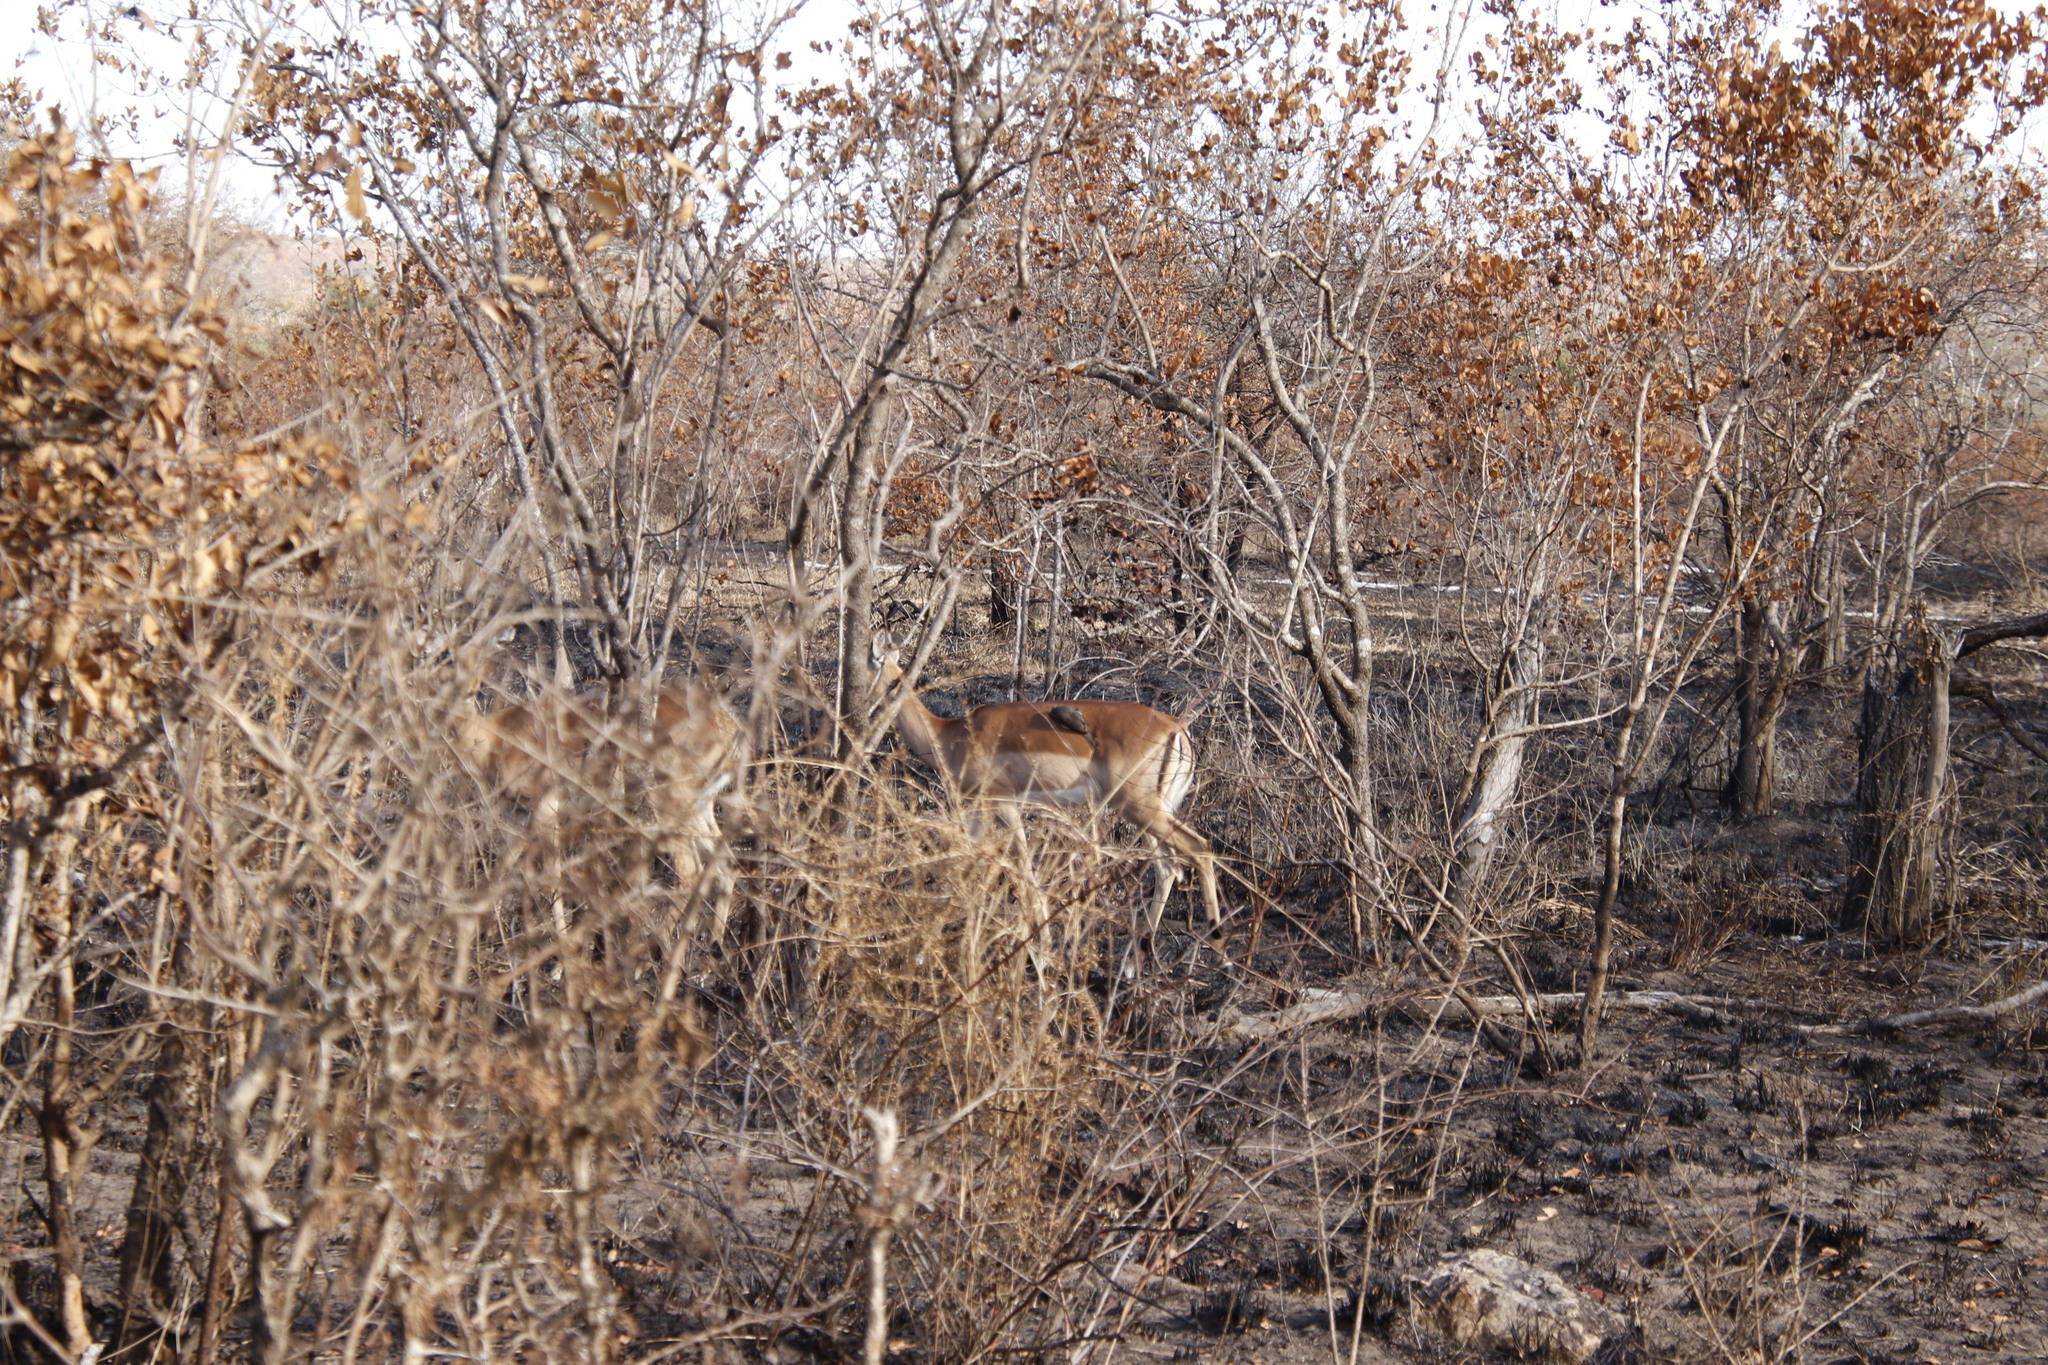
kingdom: Animalia
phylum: Chordata
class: Mammalia
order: Artiodactyla
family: Bovidae
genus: Aepyceros
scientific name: Aepyceros melampus
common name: Impala
